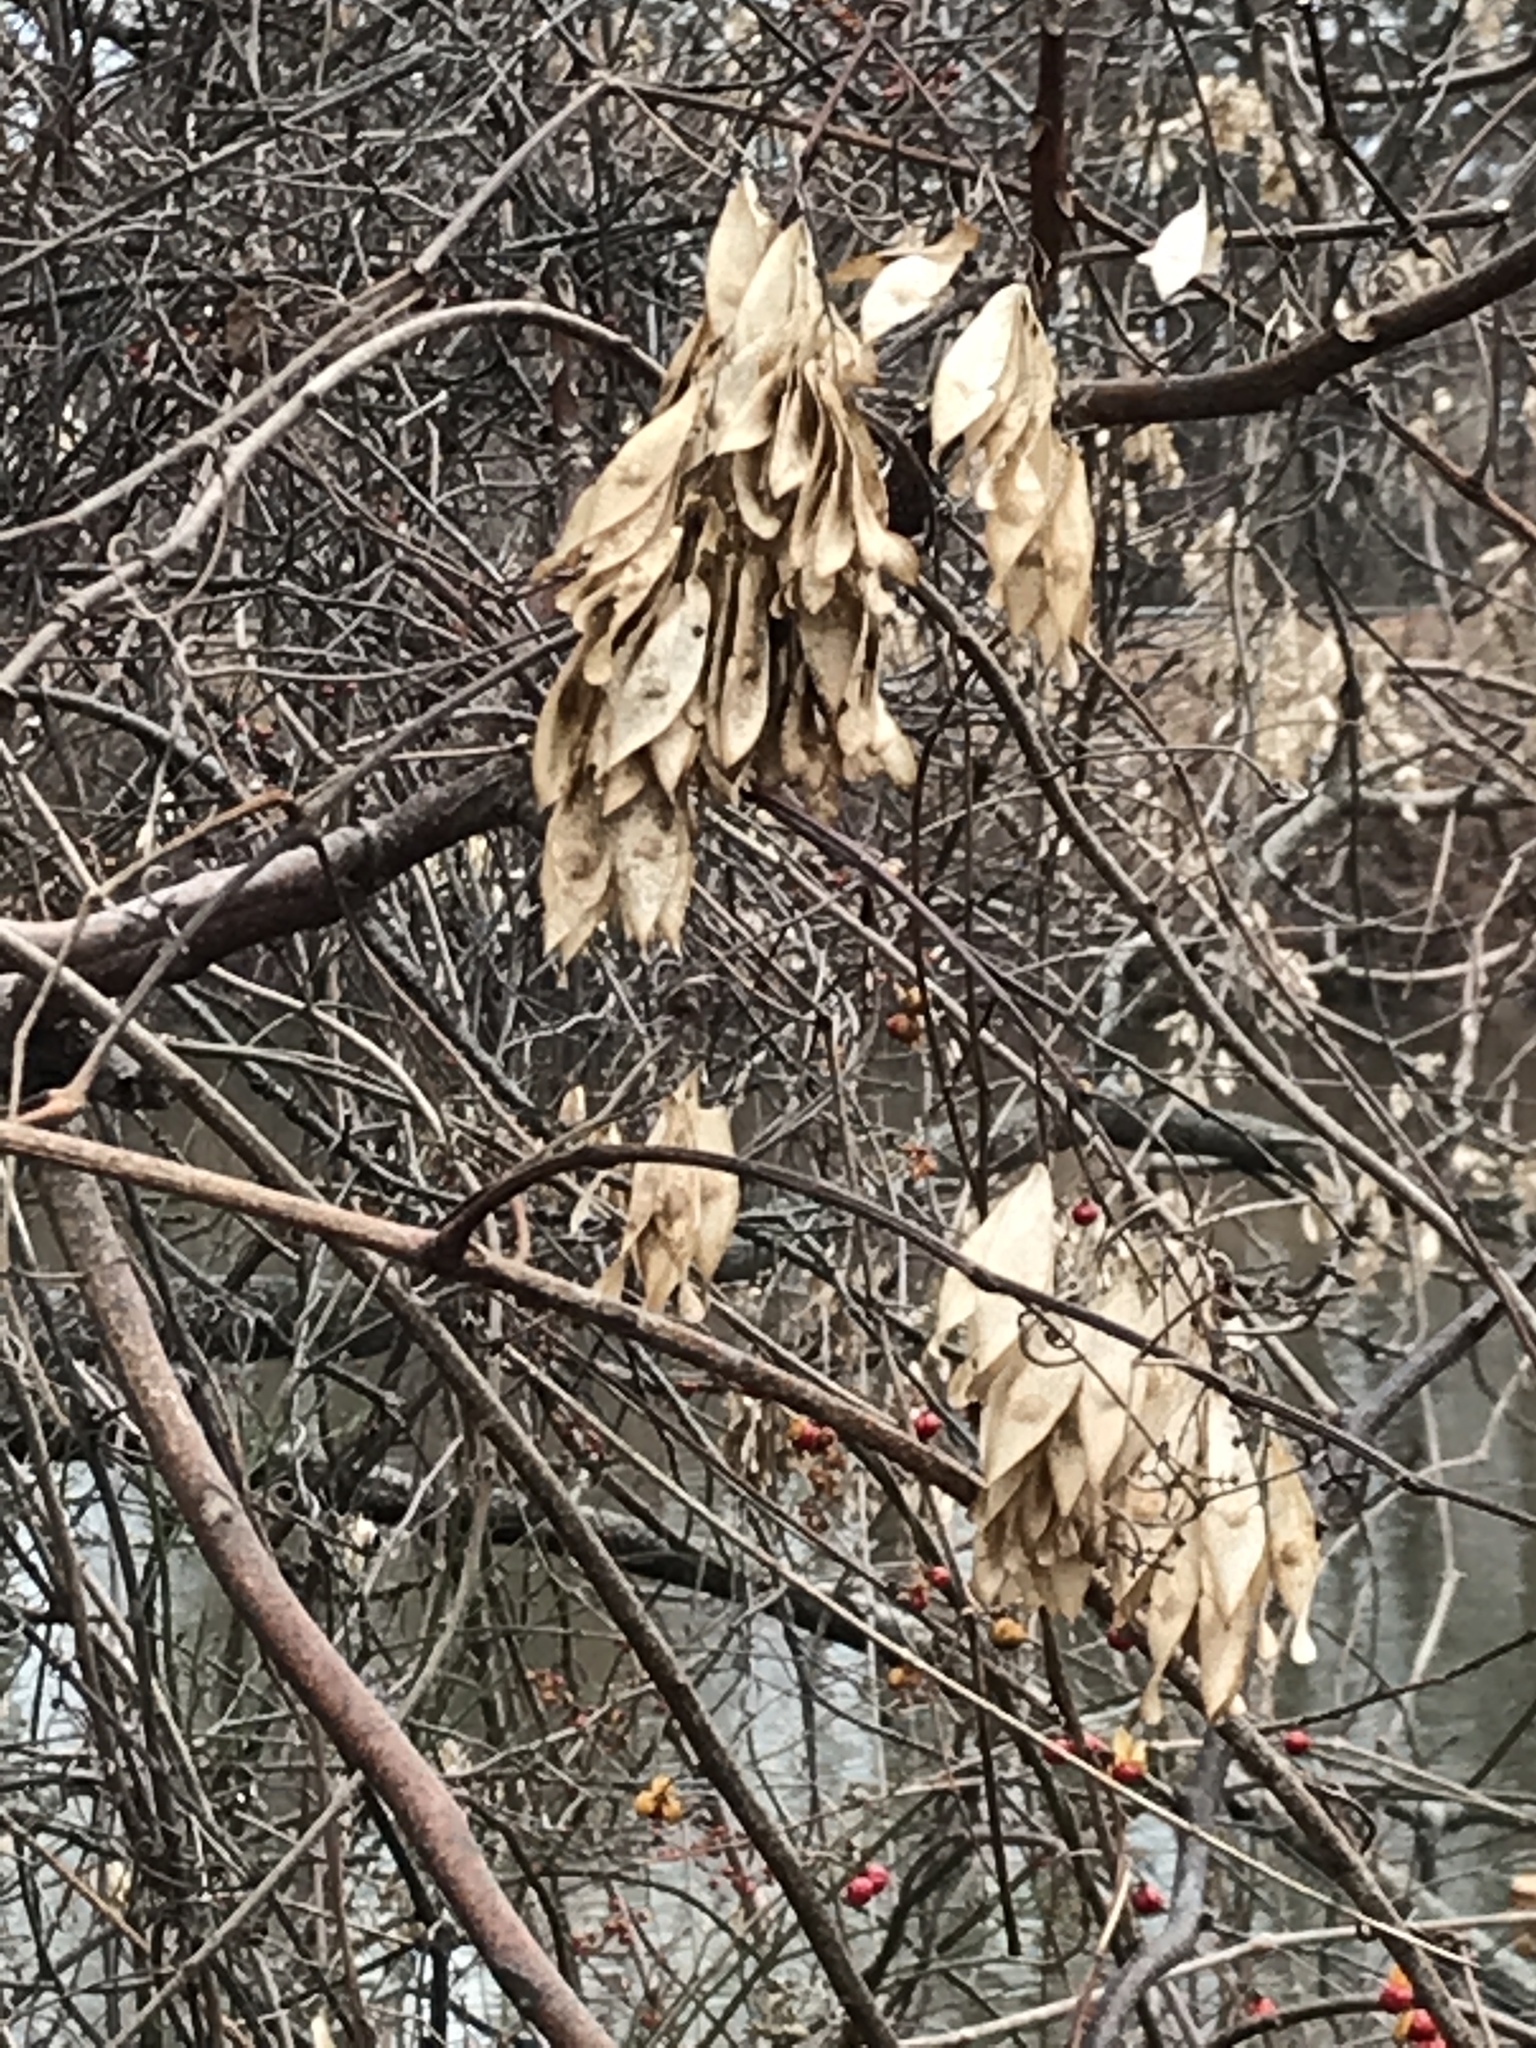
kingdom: Plantae
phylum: Tracheophyta
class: Magnoliopsida
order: Sapindales
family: Simaroubaceae
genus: Ailanthus
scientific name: Ailanthus altissima
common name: Tree-of-heaven
